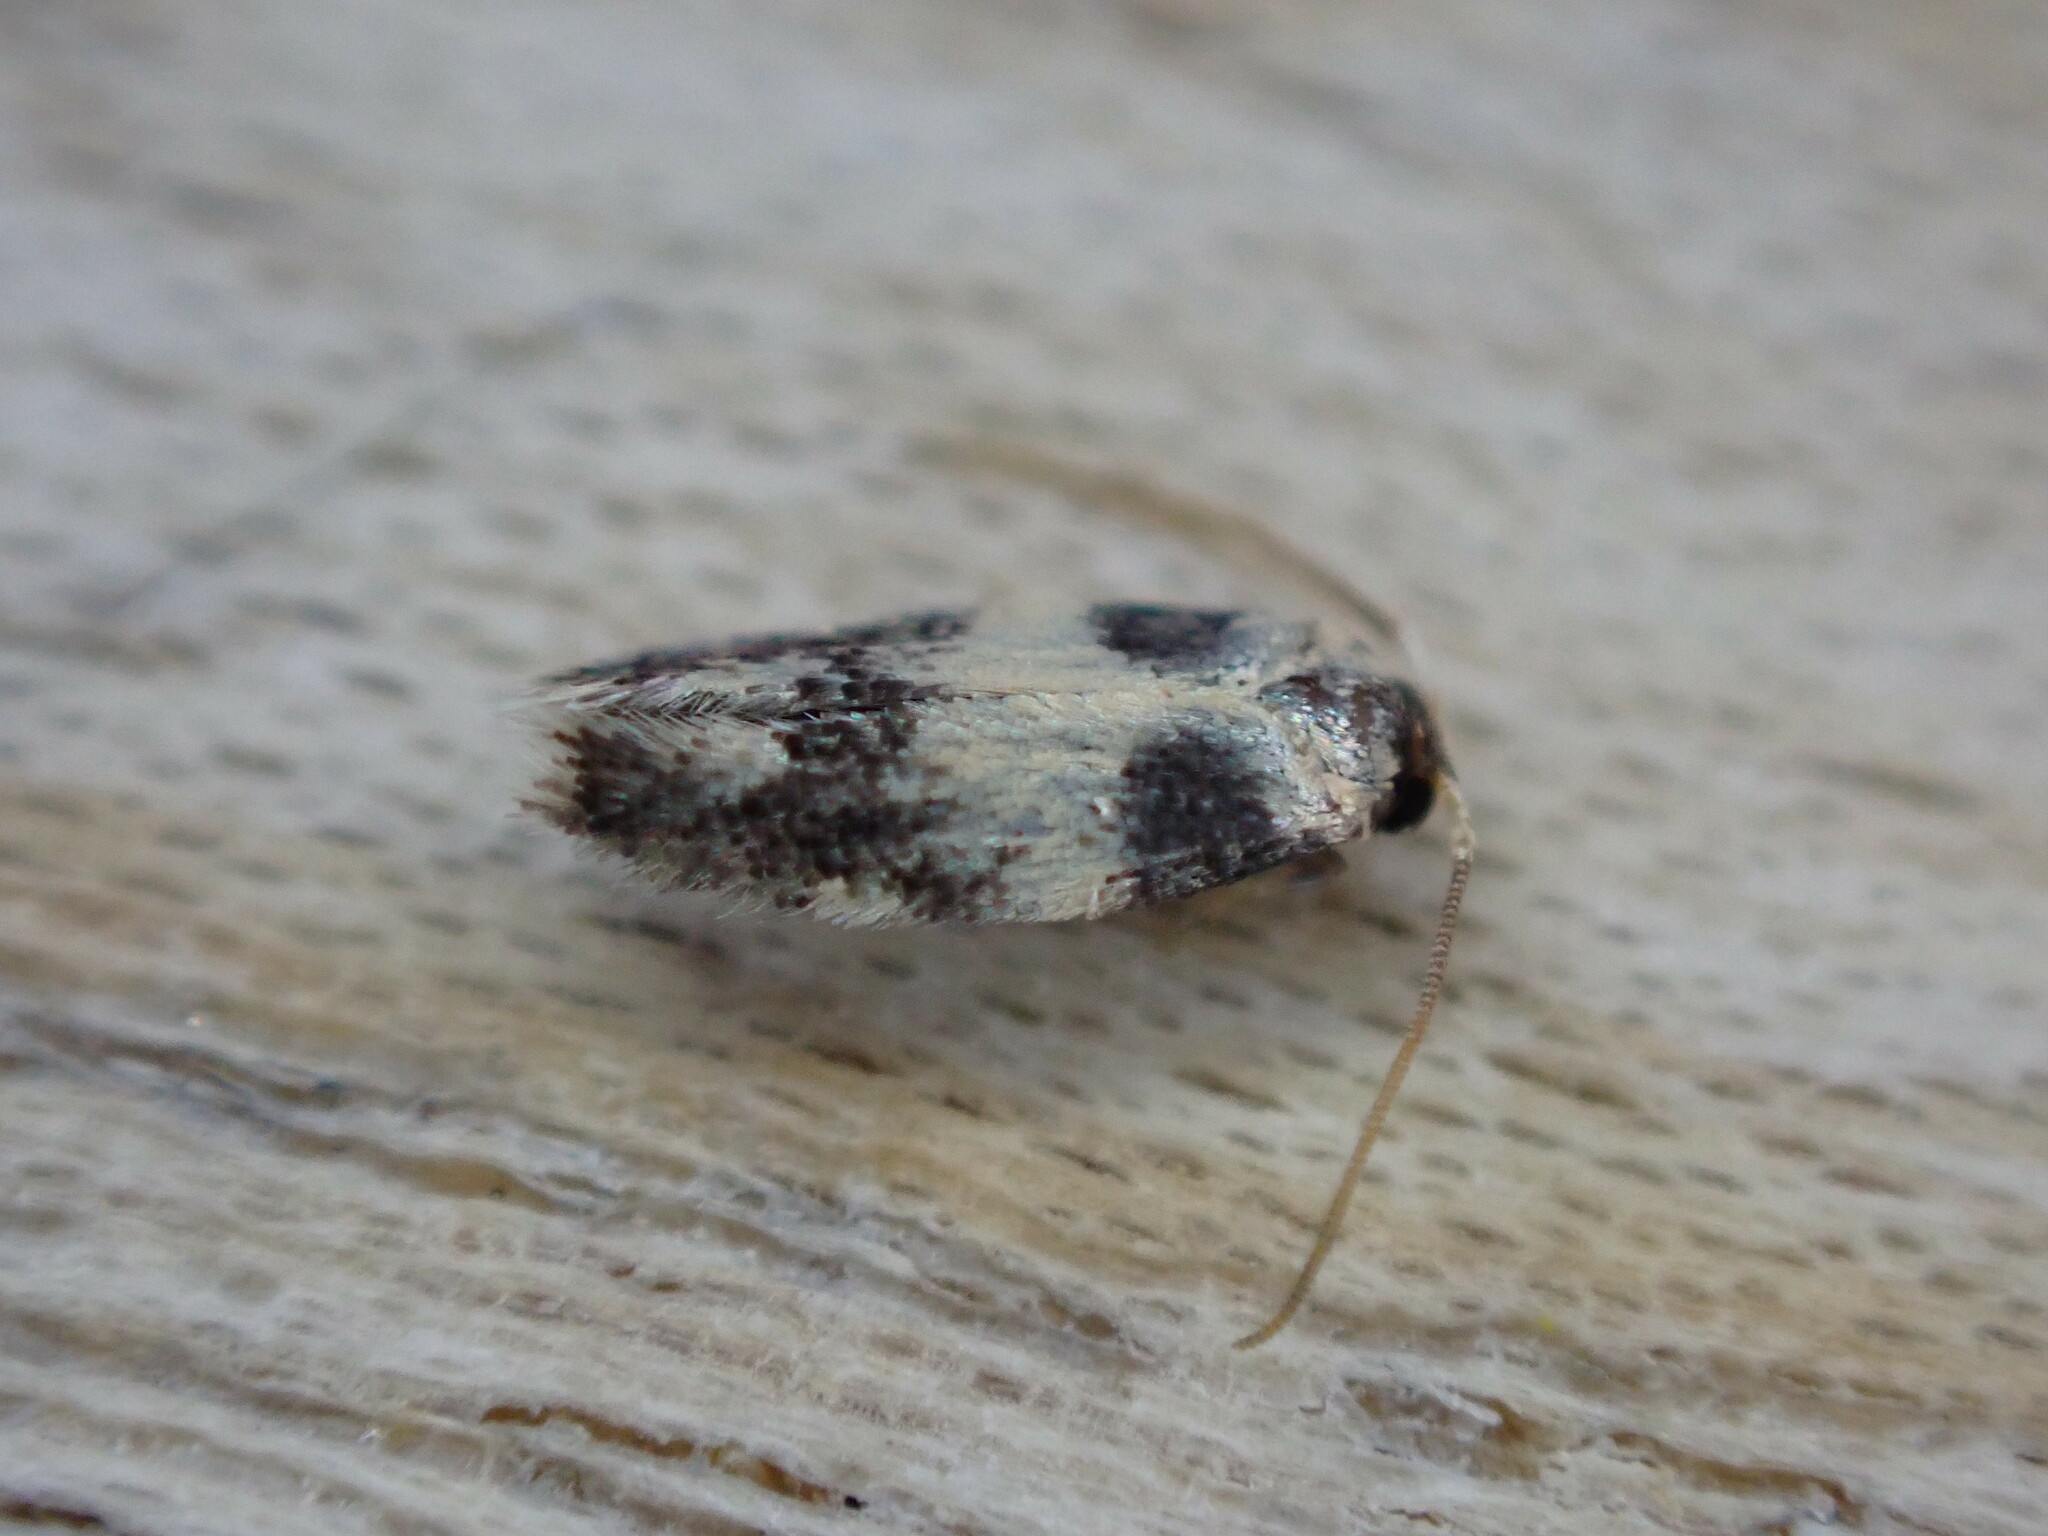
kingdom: Animalia
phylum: Arthropoda
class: Insecta
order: Lepidoptera
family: Nepticulidae
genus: Etainia
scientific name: Etainia decentella
